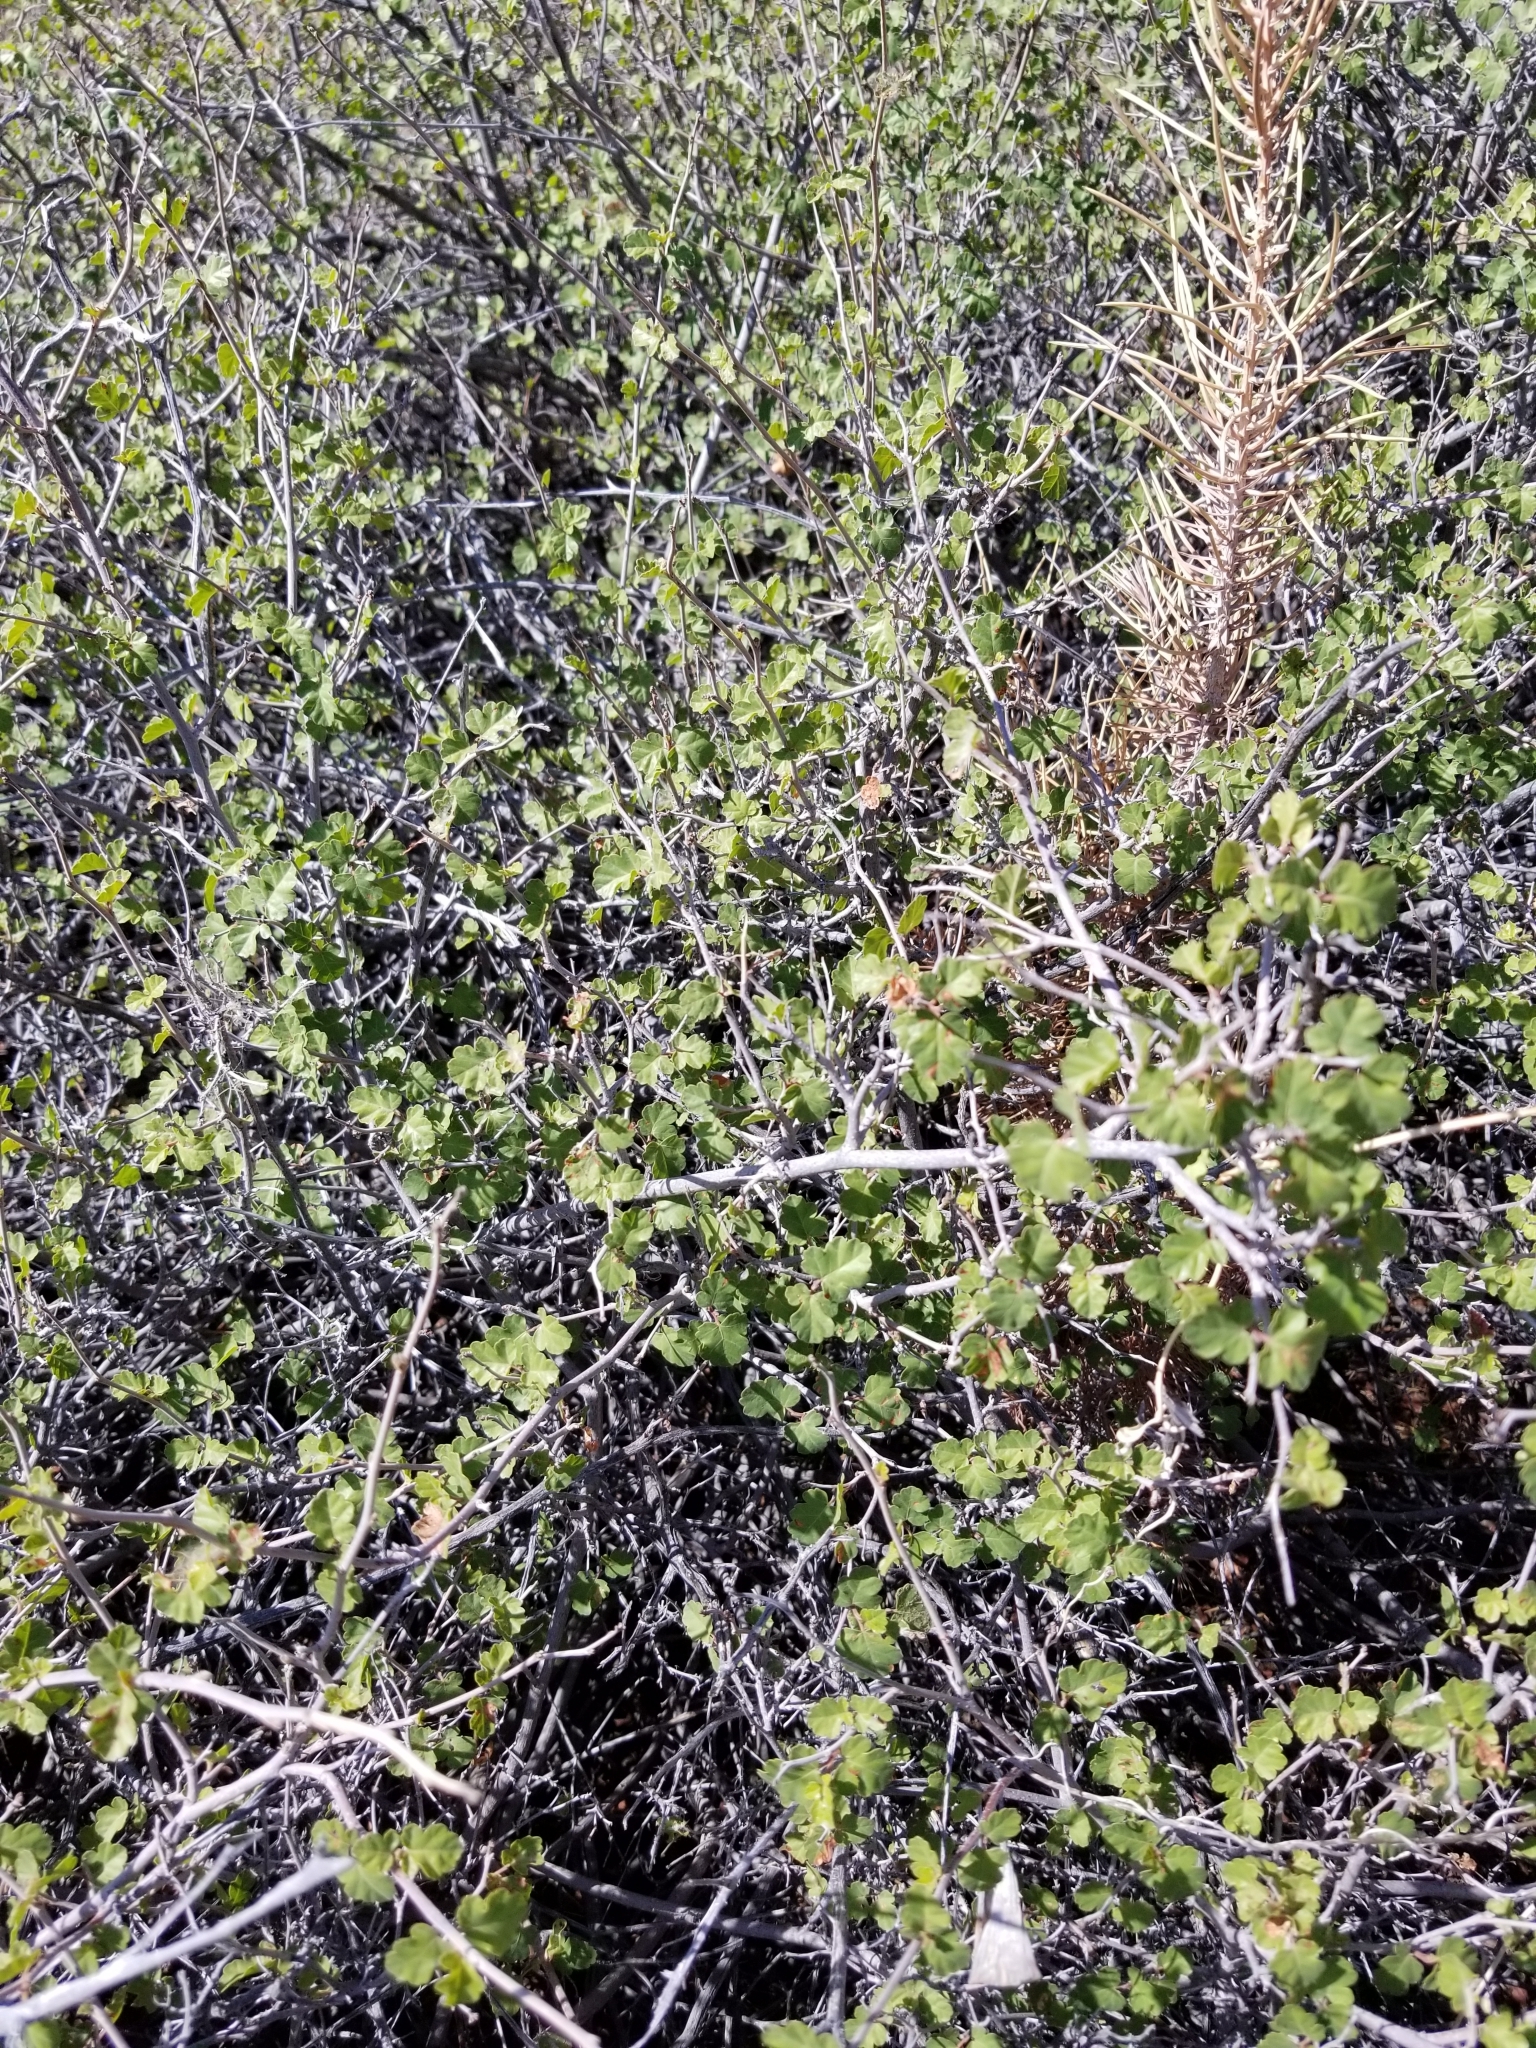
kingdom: Plantae
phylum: Tracheophyta
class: Magnoliopsida
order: Sapindales
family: Anacardiaceae
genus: Rhus
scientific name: Rhus aromatica
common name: Aromatic sumac
